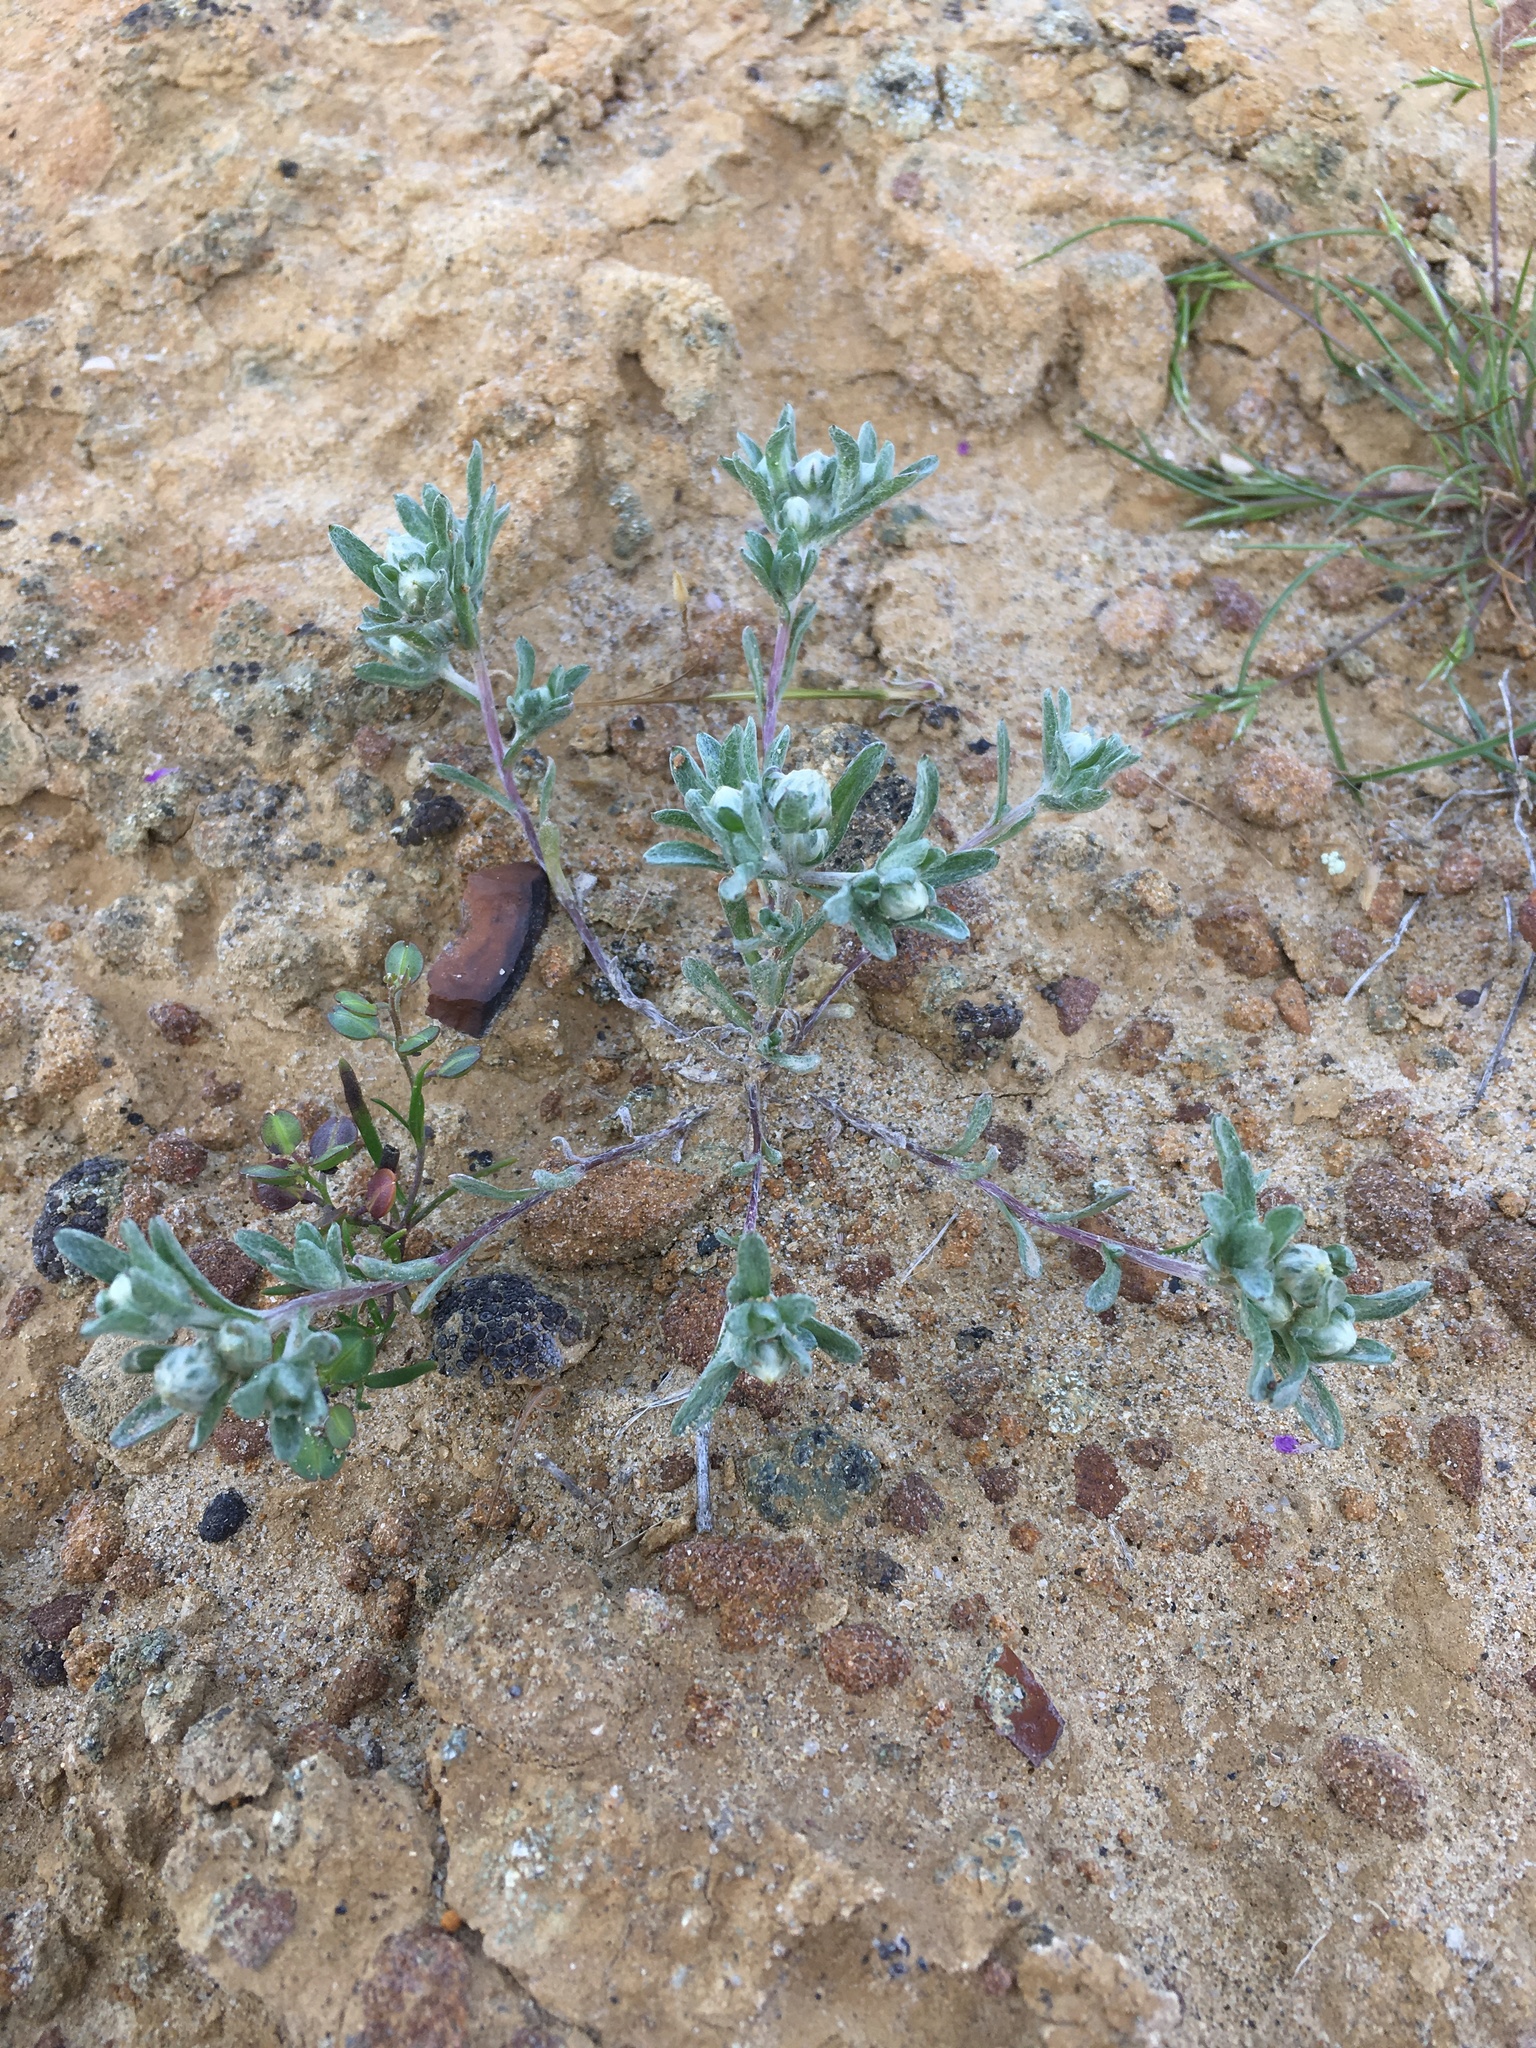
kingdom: Plantae
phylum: Tracheophyta
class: Magnoliopsida
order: Asterales
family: Asteraceae
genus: Stylocline
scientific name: Stylocline gnaphaloides
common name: Everlasting nest-straw
